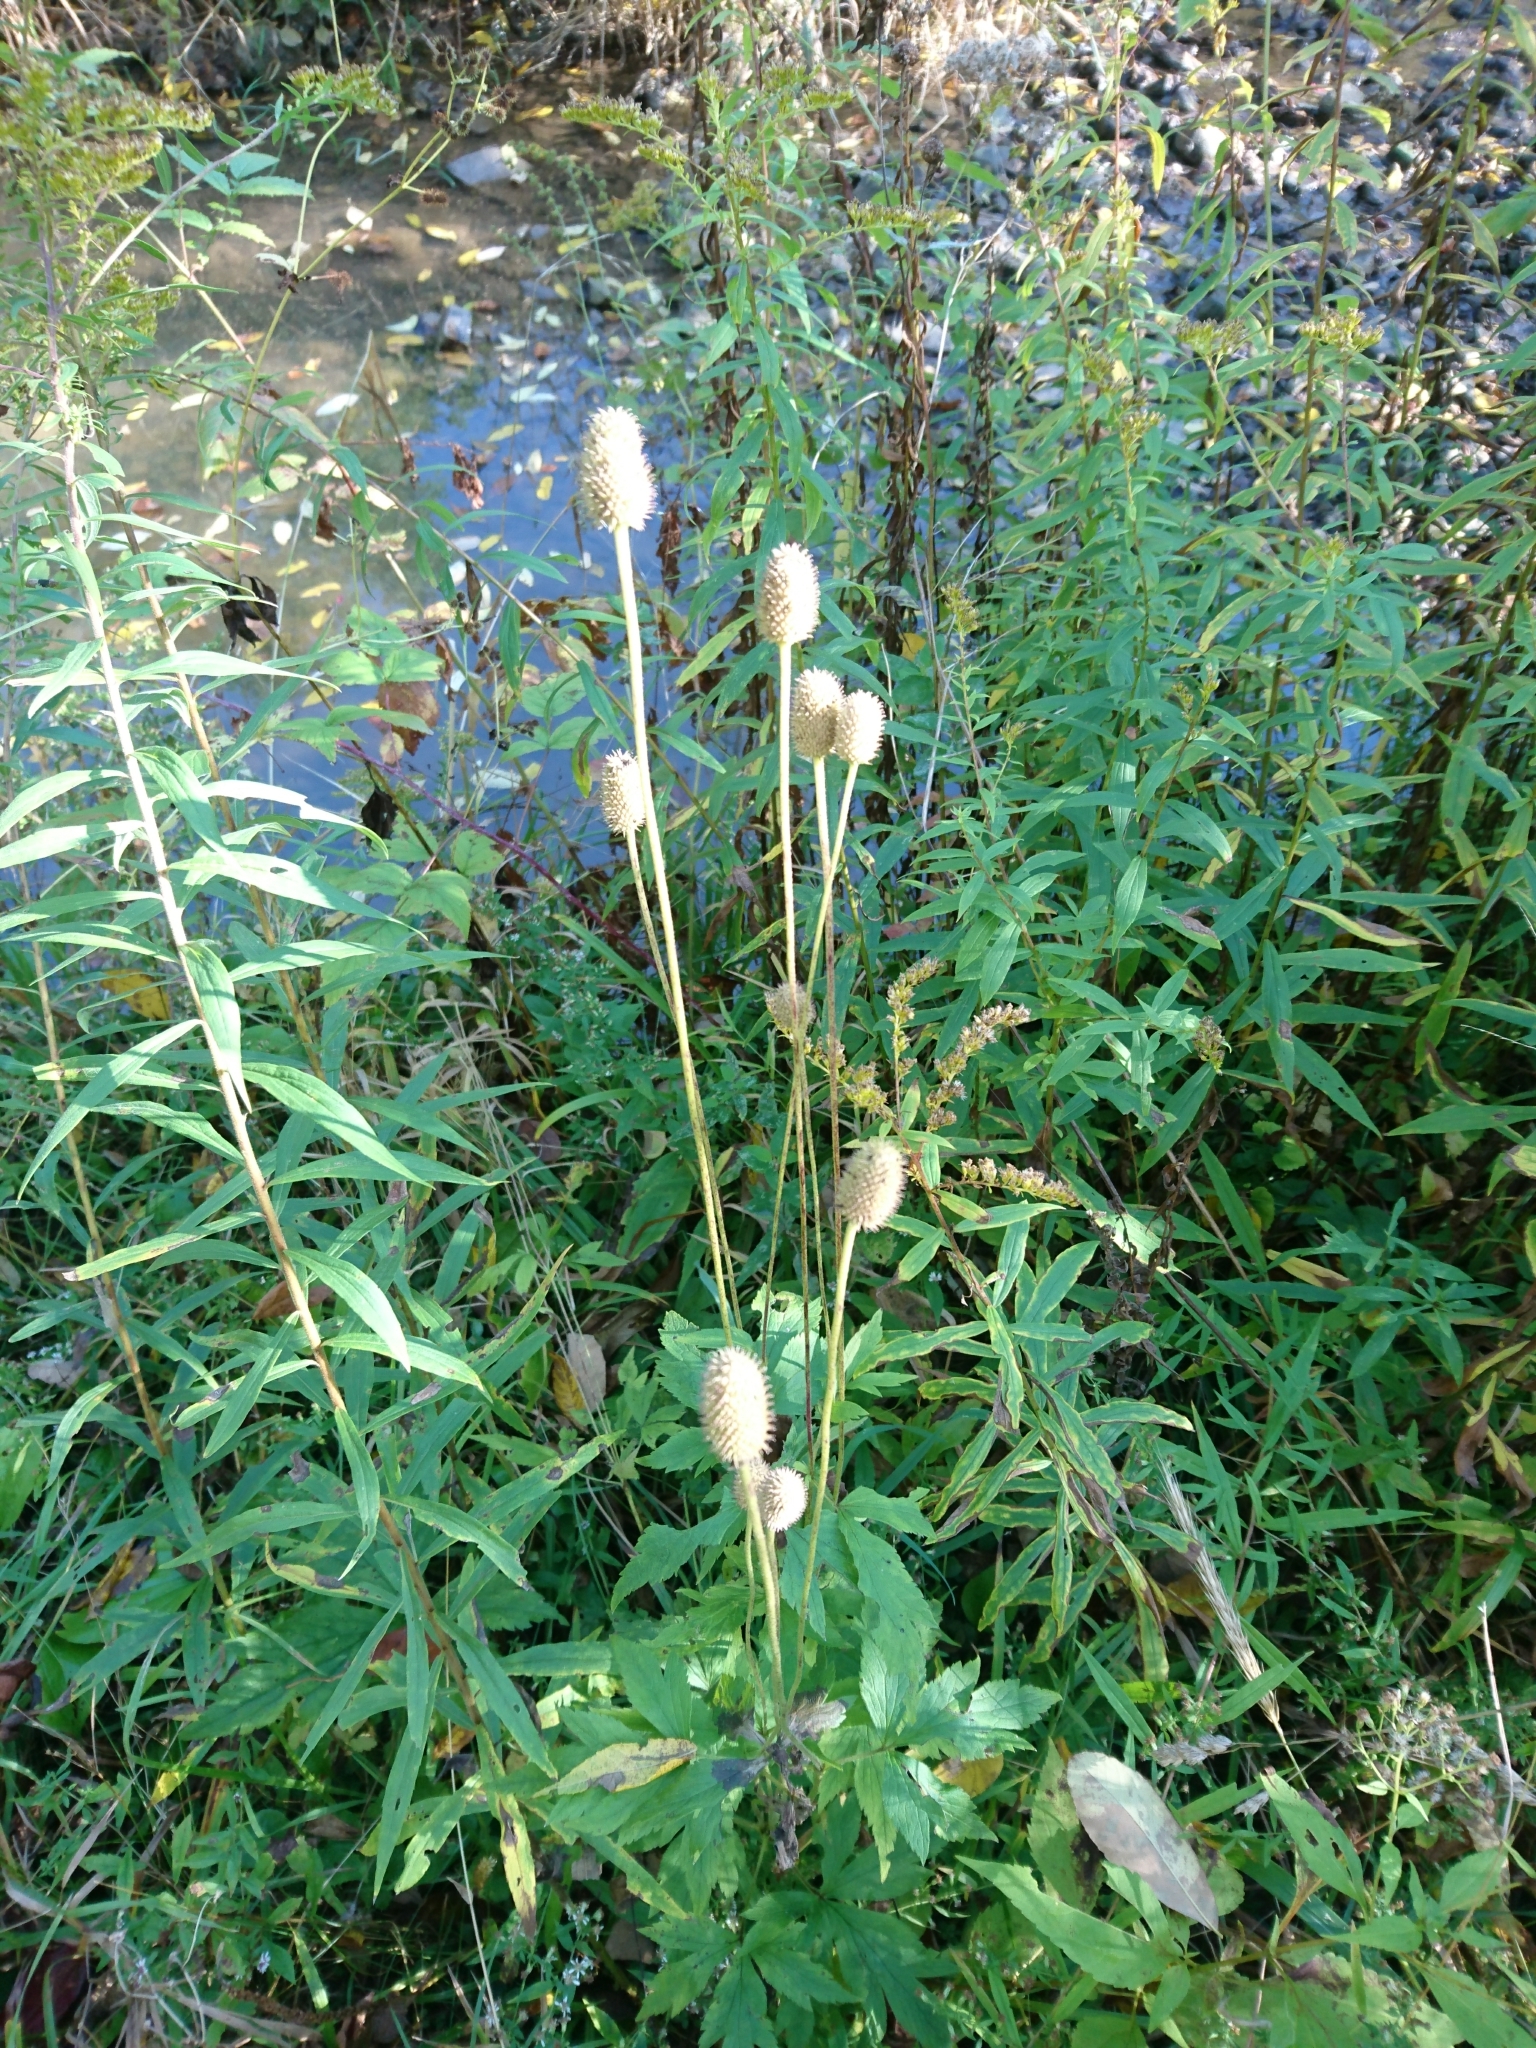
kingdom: Plantae
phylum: Tracheophyta
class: Magnoliopsida
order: Ranunculales
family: Ranunculaceae
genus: Anemone
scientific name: Anemone virginiana
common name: Tall anemone
